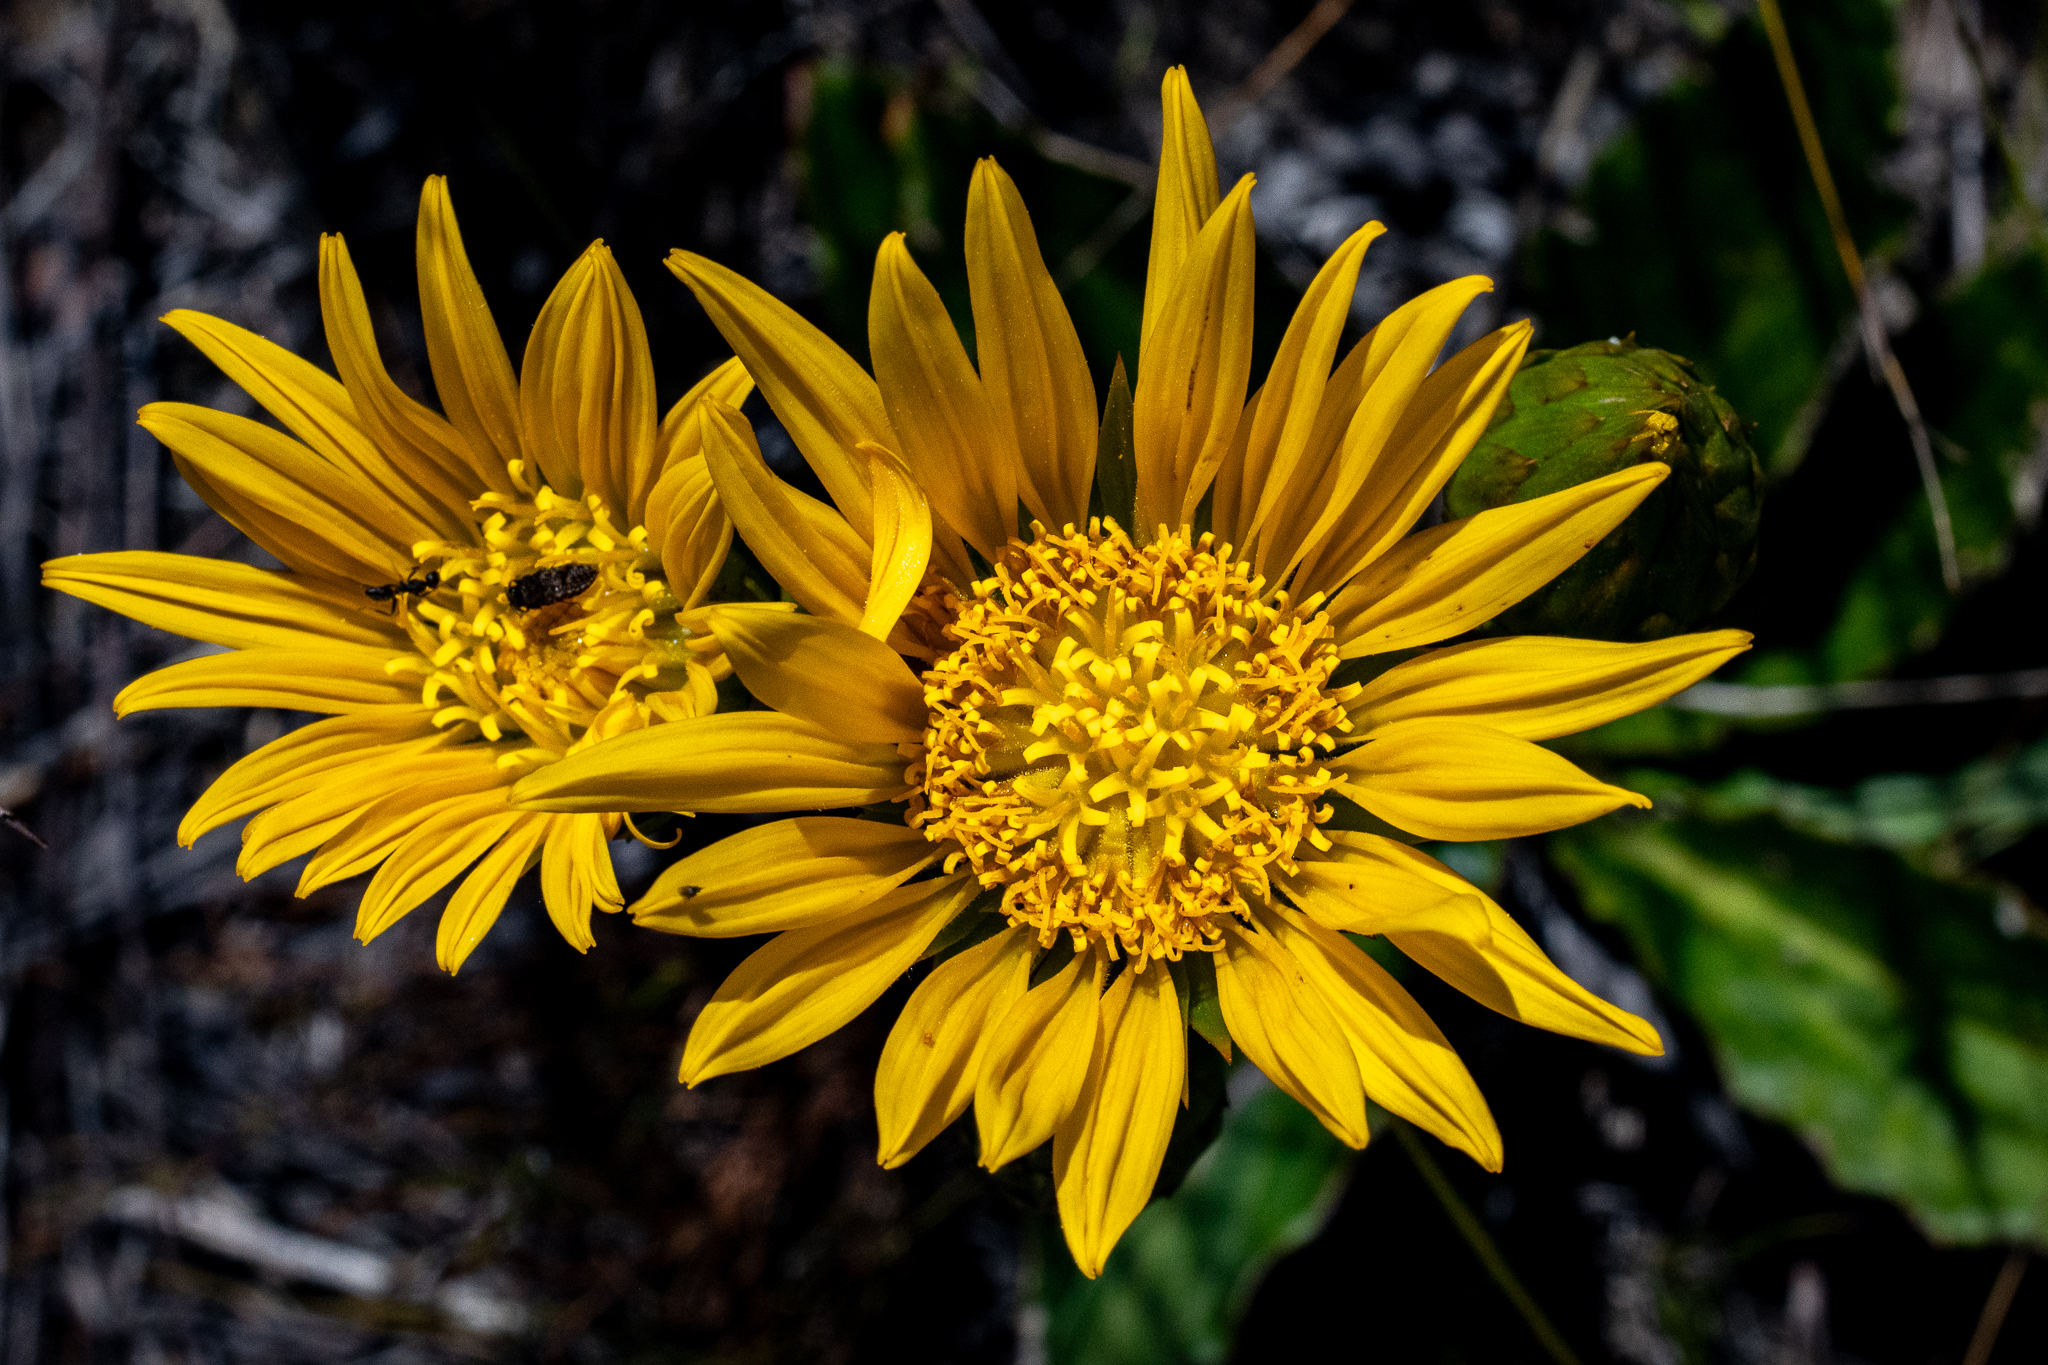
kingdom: Plantae
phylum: Tracheophyta
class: Magnoliopsida
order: Asterales
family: Asteraceae
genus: Berkheya
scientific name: Berkheya herbacea
